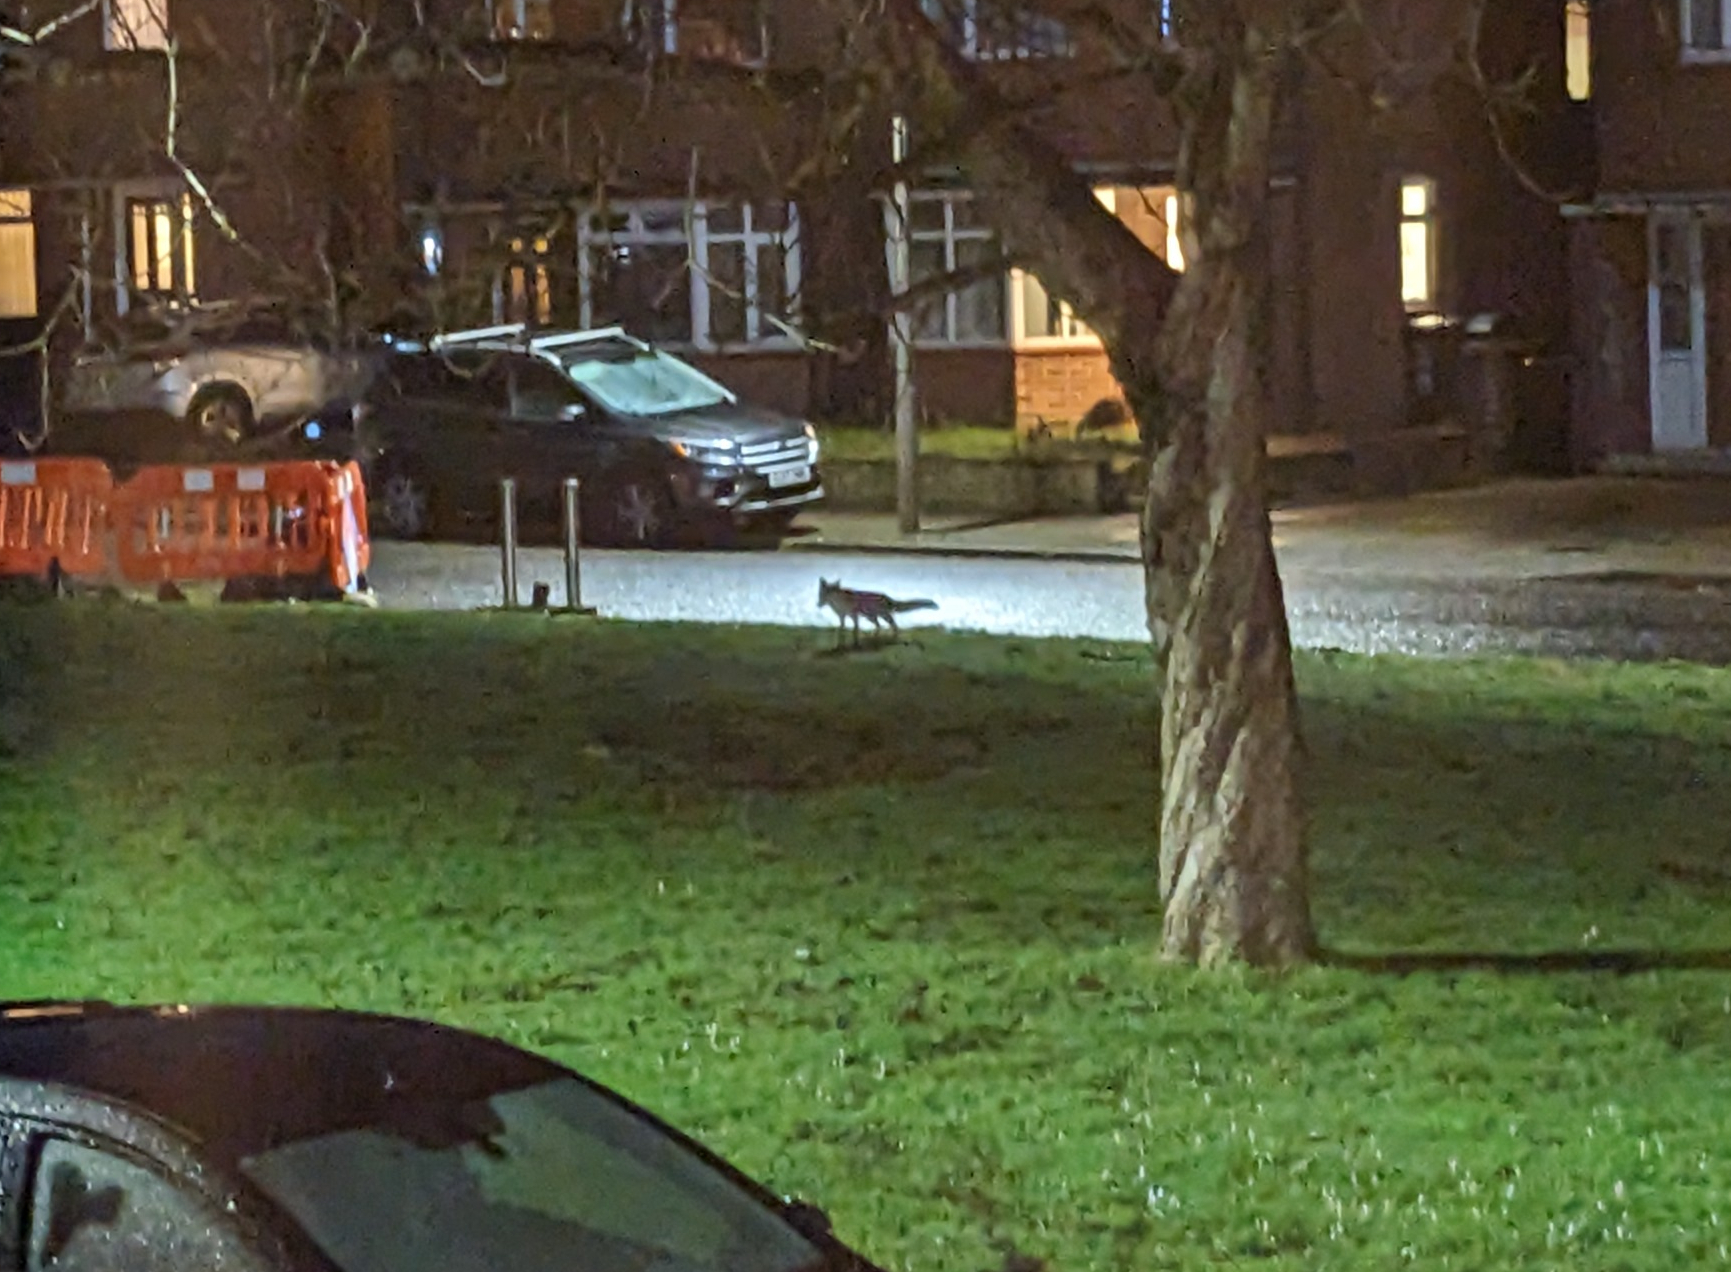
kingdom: Animalia
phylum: Chordata
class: Mammalia
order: Carnivora
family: Canidae
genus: Vulpes
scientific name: Vulpes vulpes
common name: Red fox
